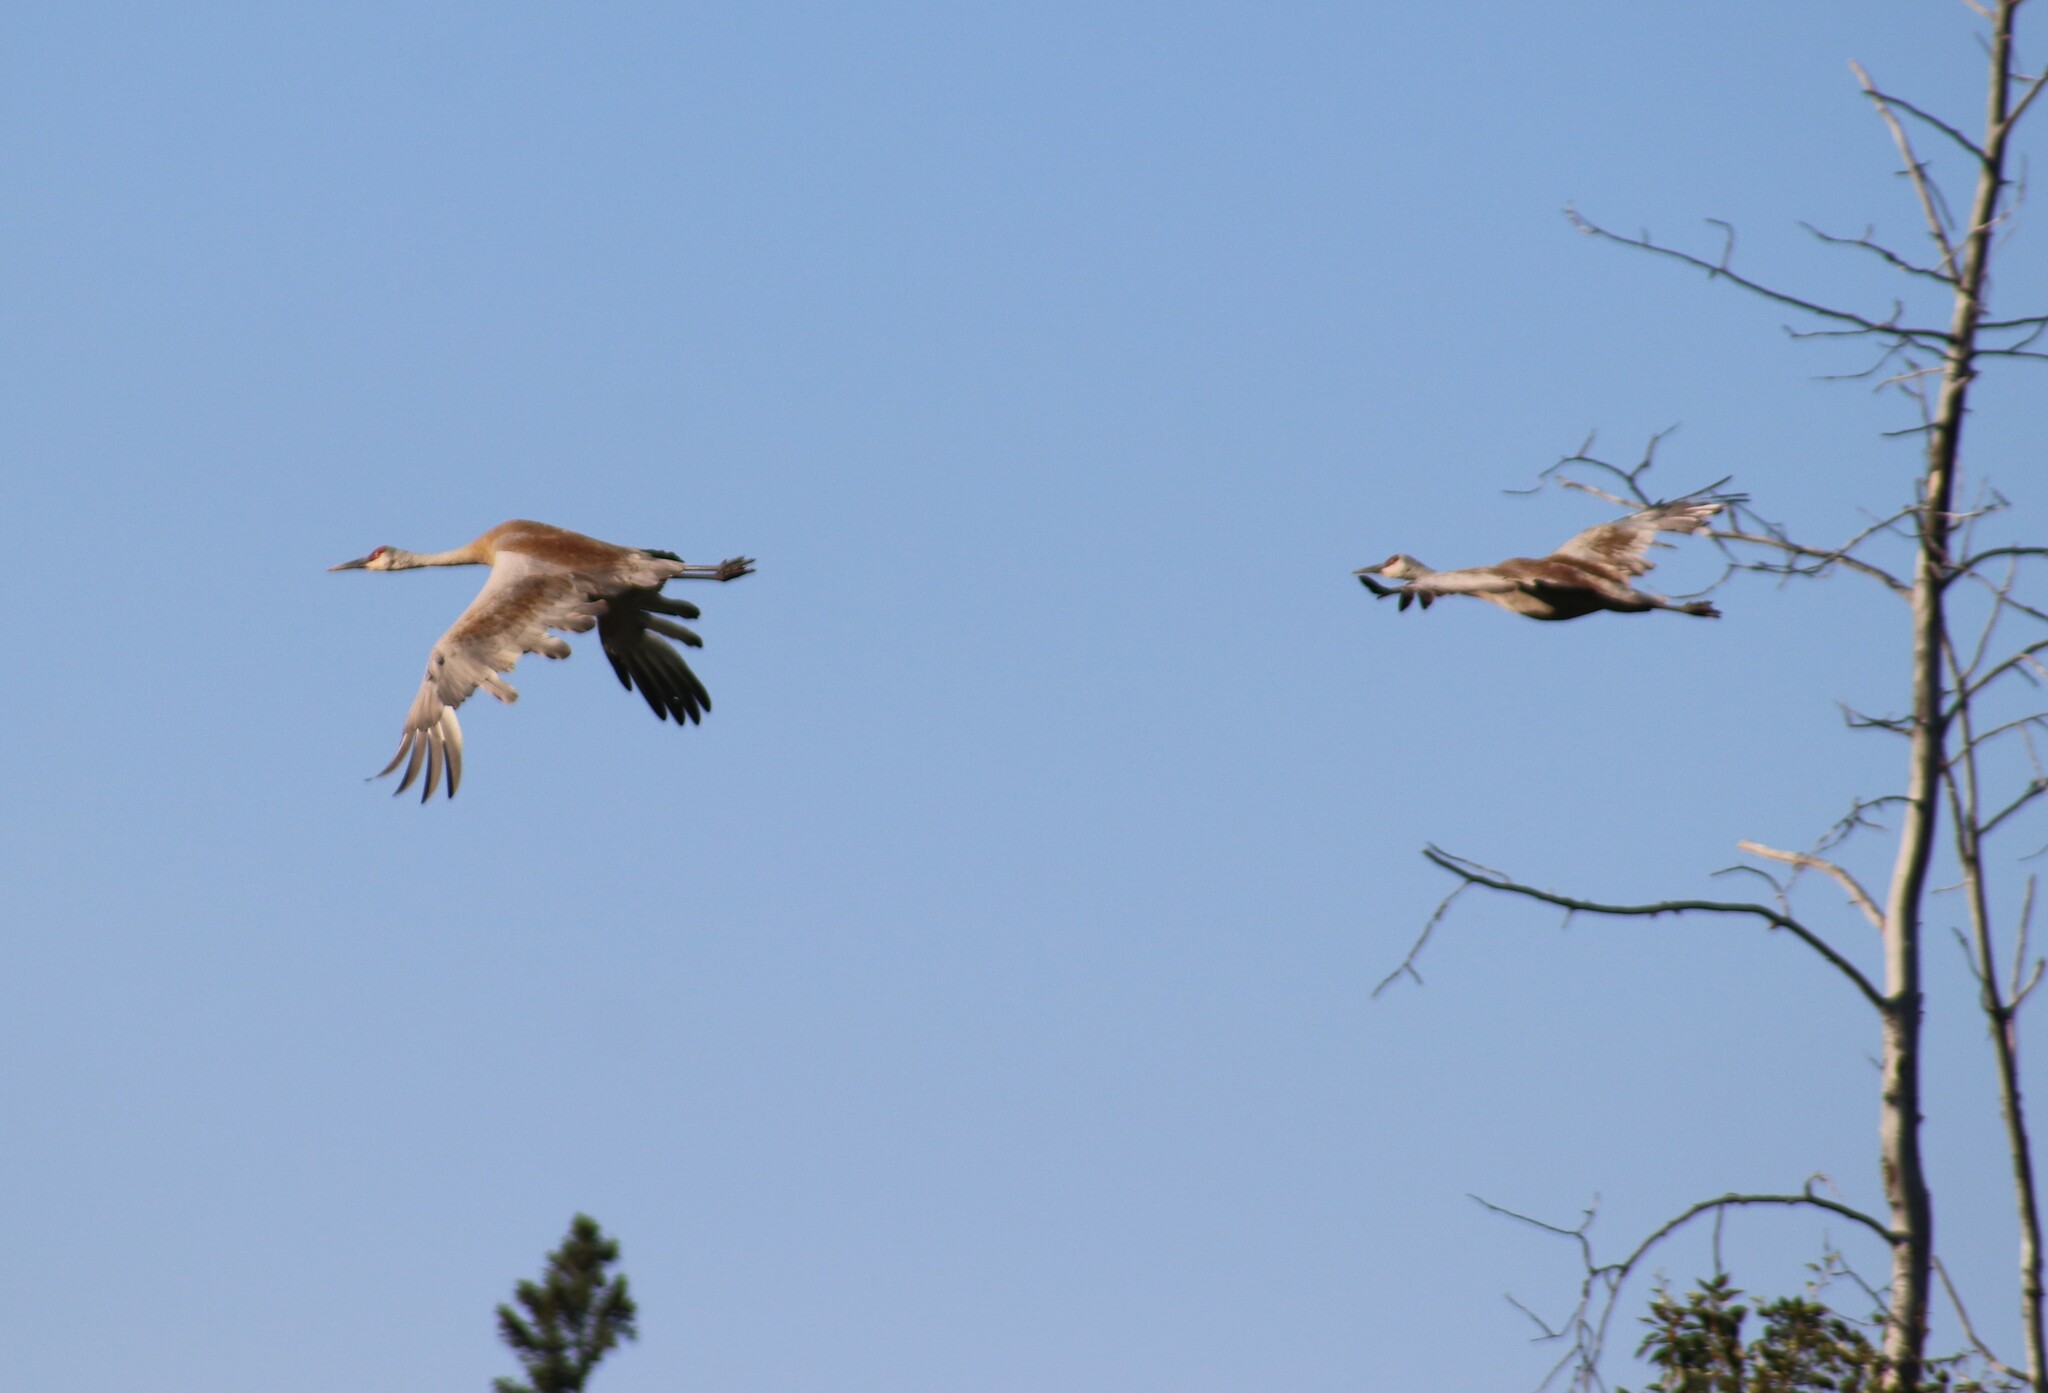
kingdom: Animalia
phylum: Chordata
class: Aves
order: Gruiformes
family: Gruidae
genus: Grus
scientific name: Grus canadensis
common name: Sandhill crane
